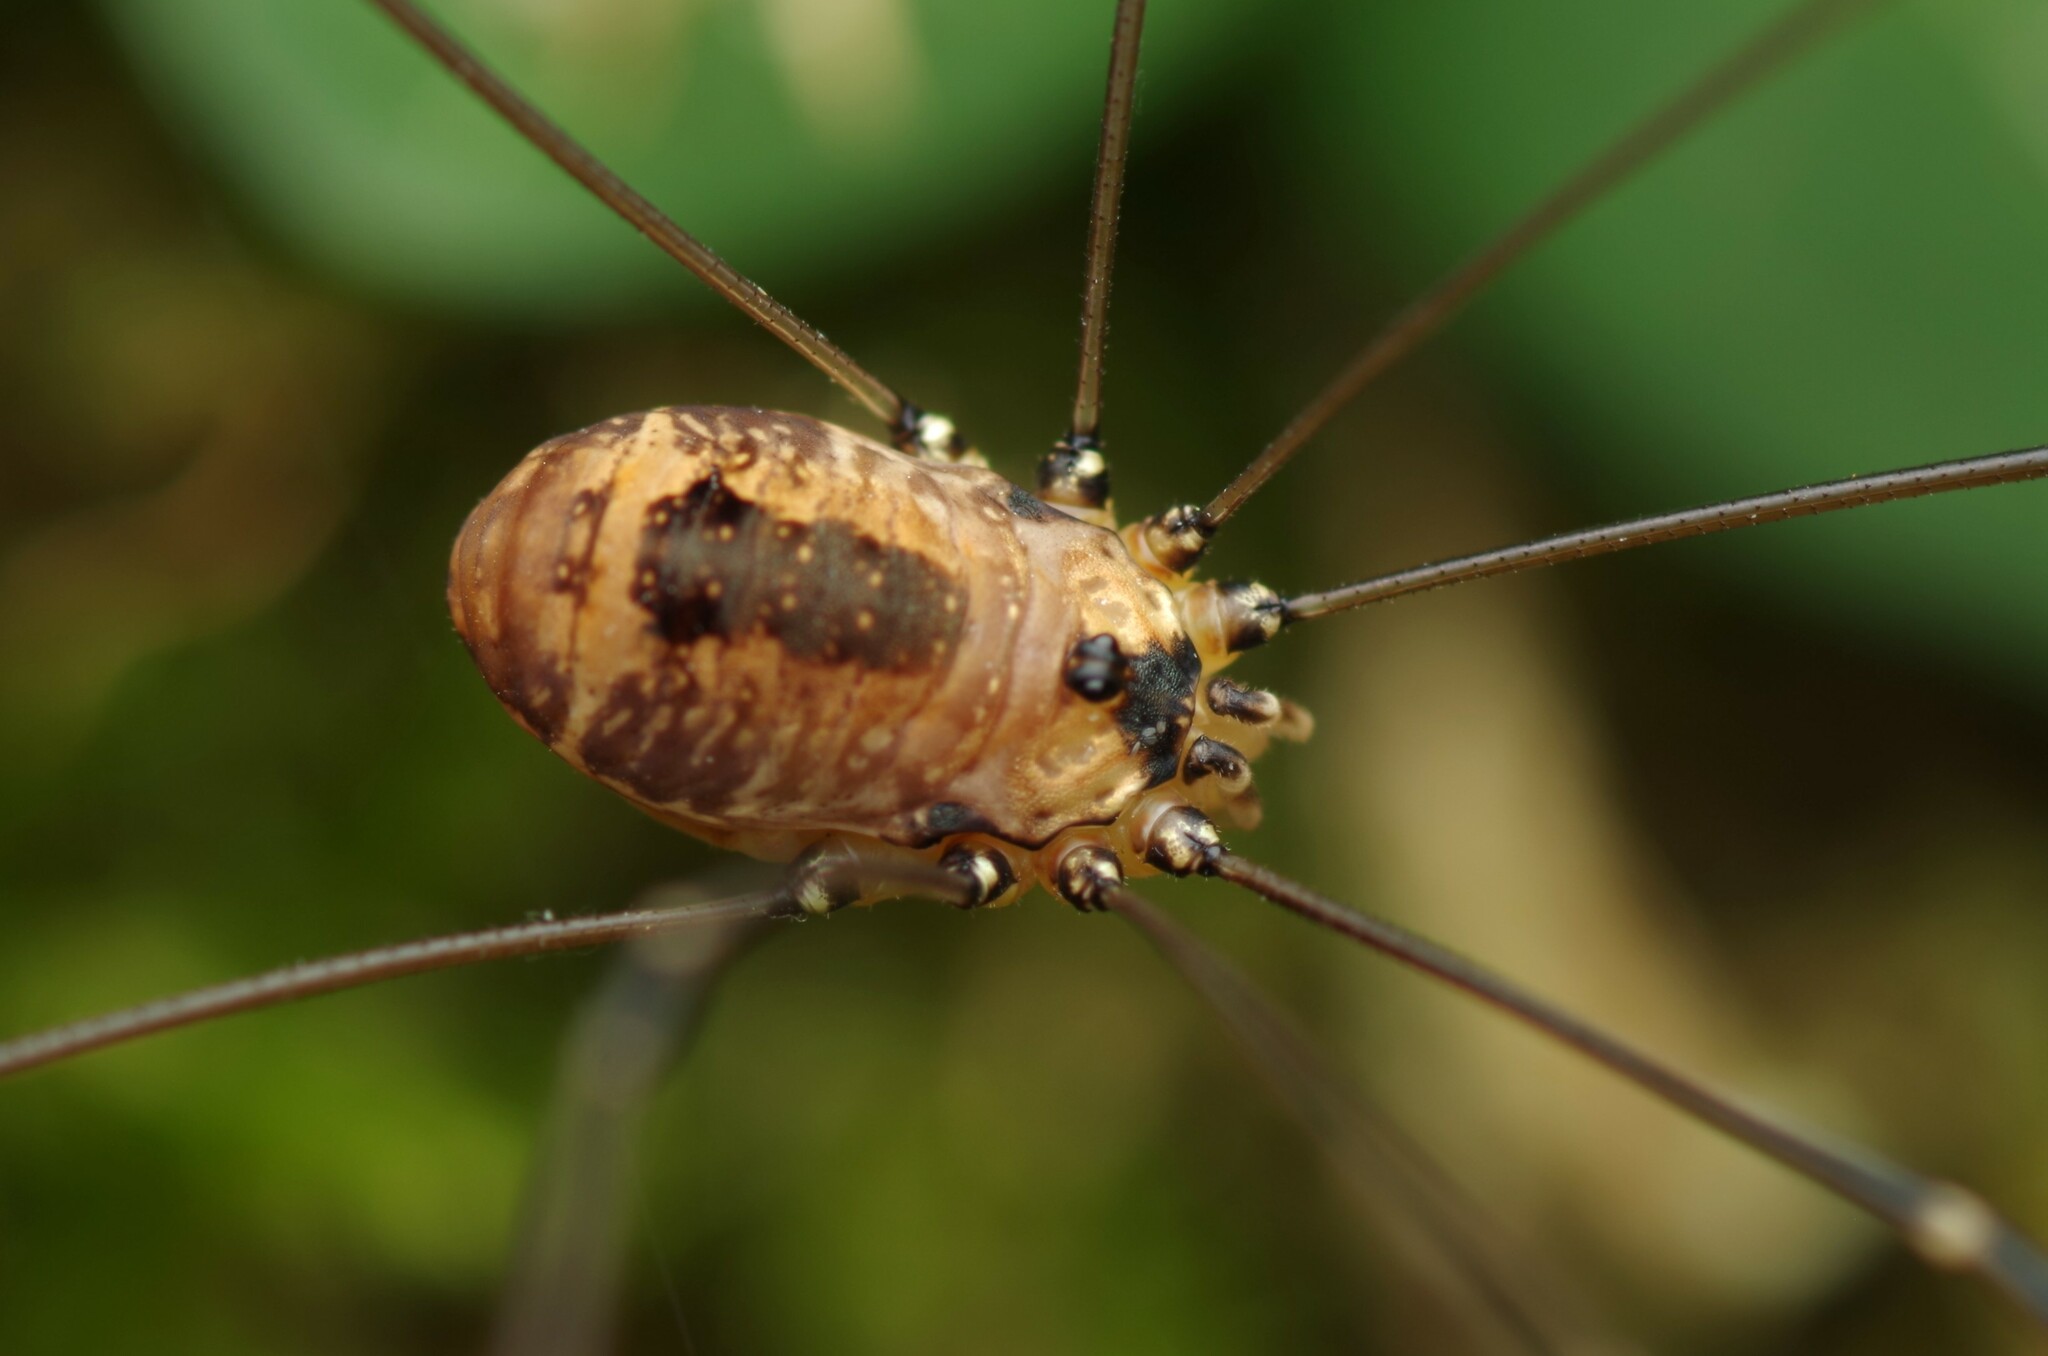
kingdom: Animalia
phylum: Arthropoda
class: Arachnida
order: Opiliones
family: Sclerosomatidae
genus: Leiobunum
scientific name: Leiobunum rotundum
